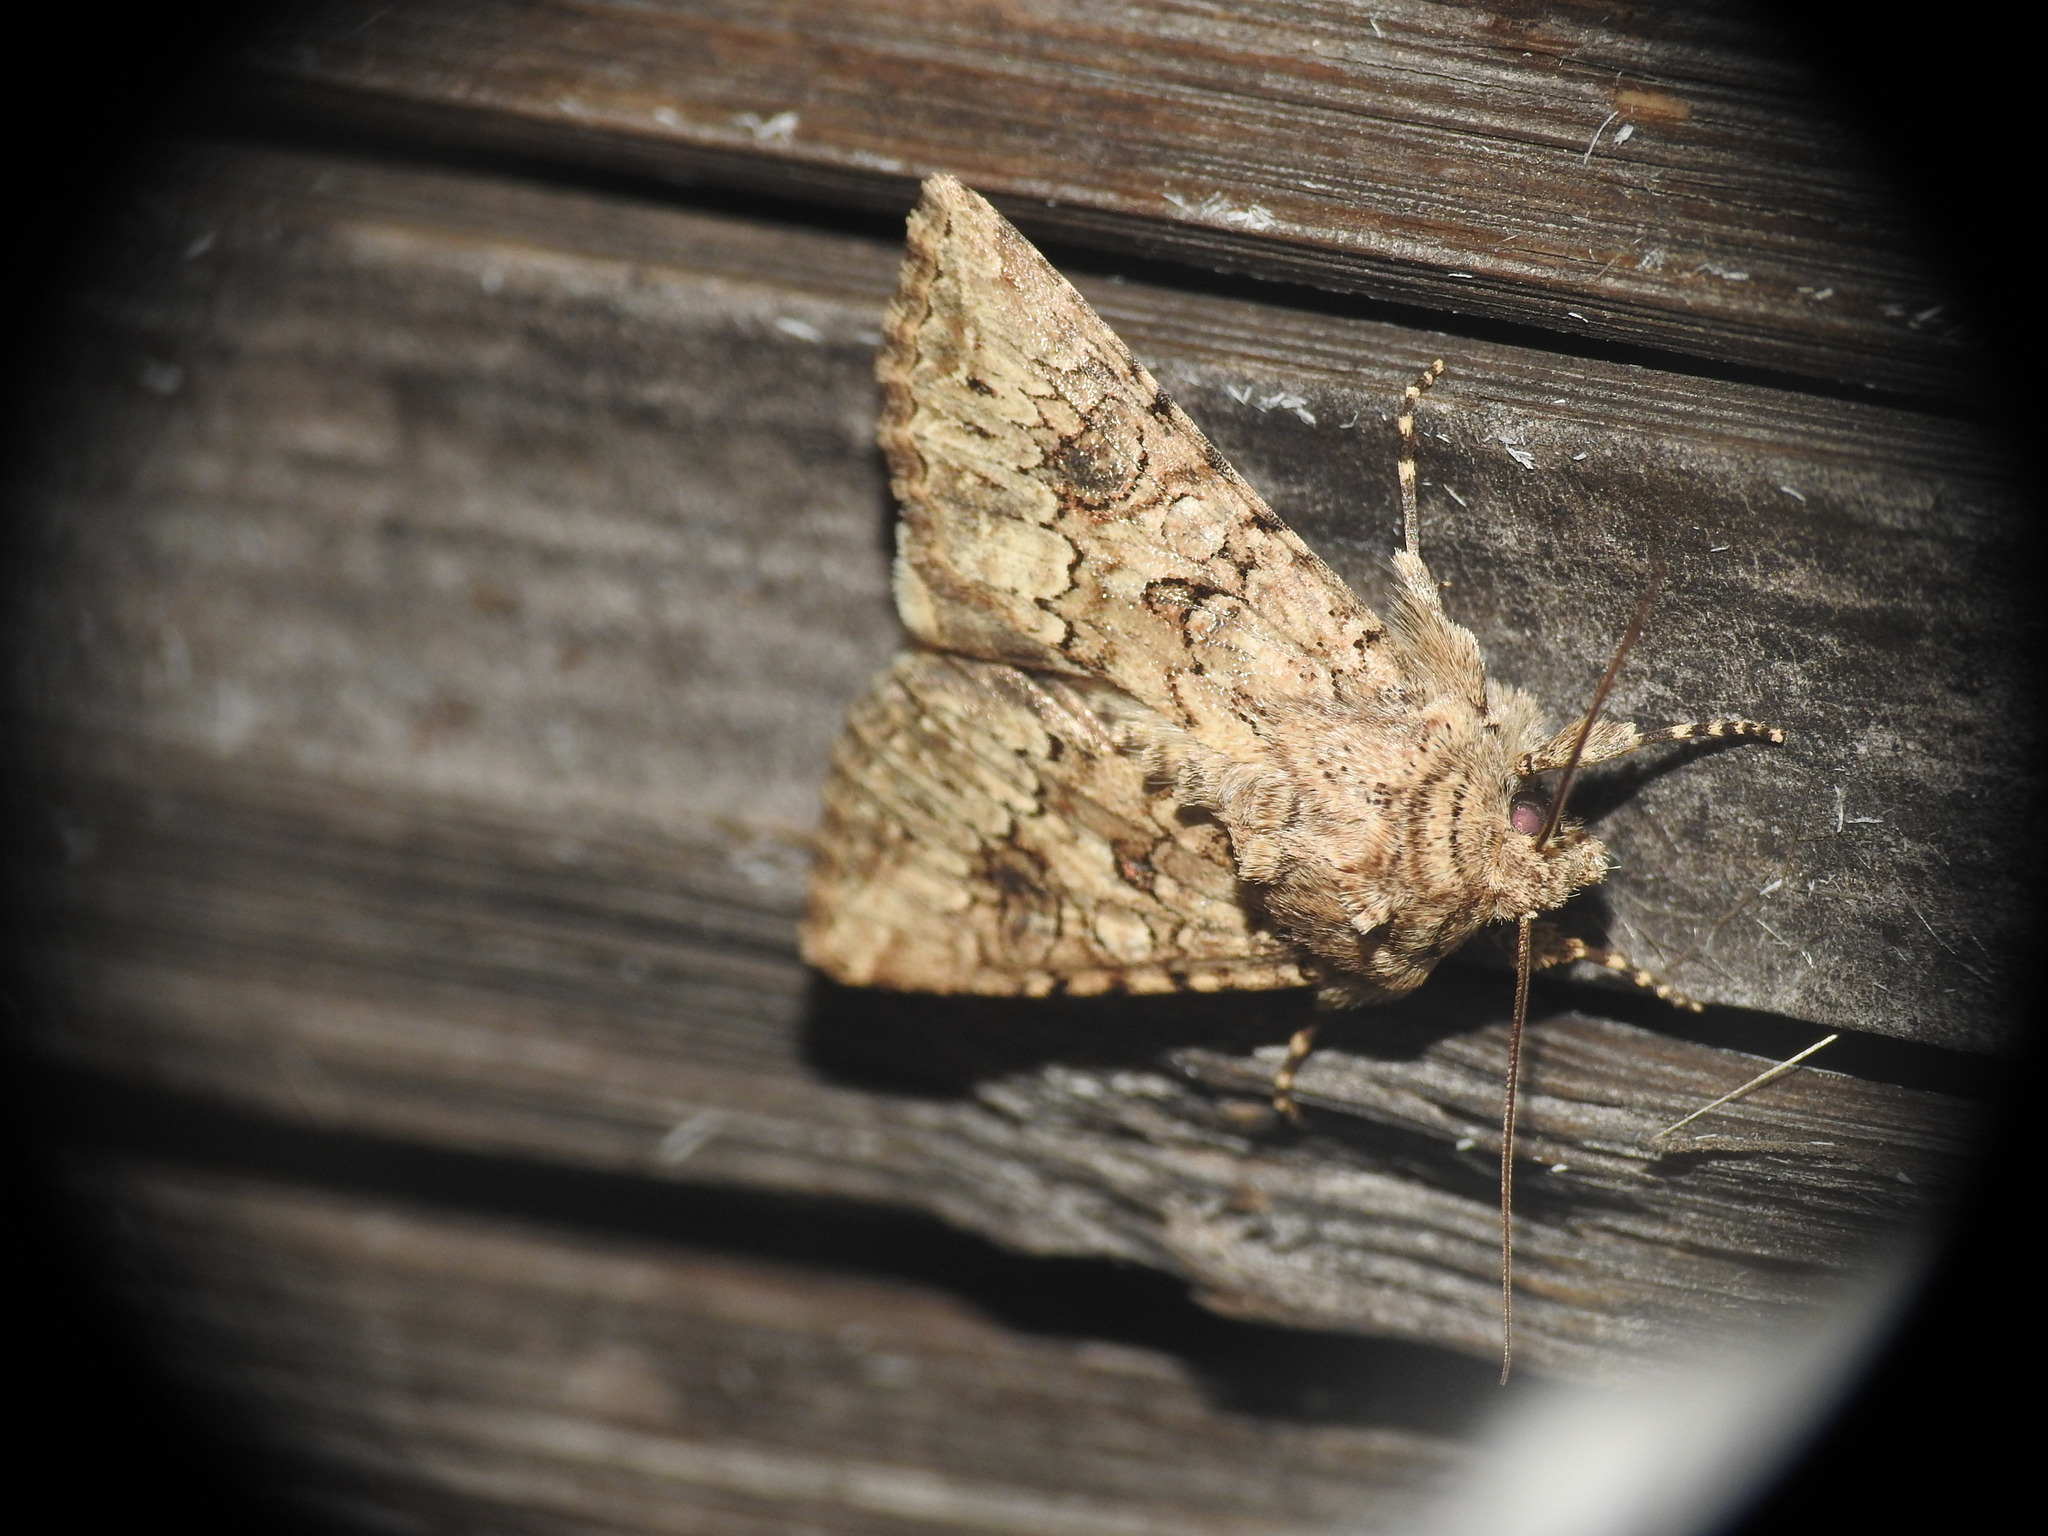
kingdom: Animalia
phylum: Arthropoda
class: Insecta
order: Lepidoptera
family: Noctuidae
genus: Anarta
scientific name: Anarta trifolii
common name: Clover cutworm moth
